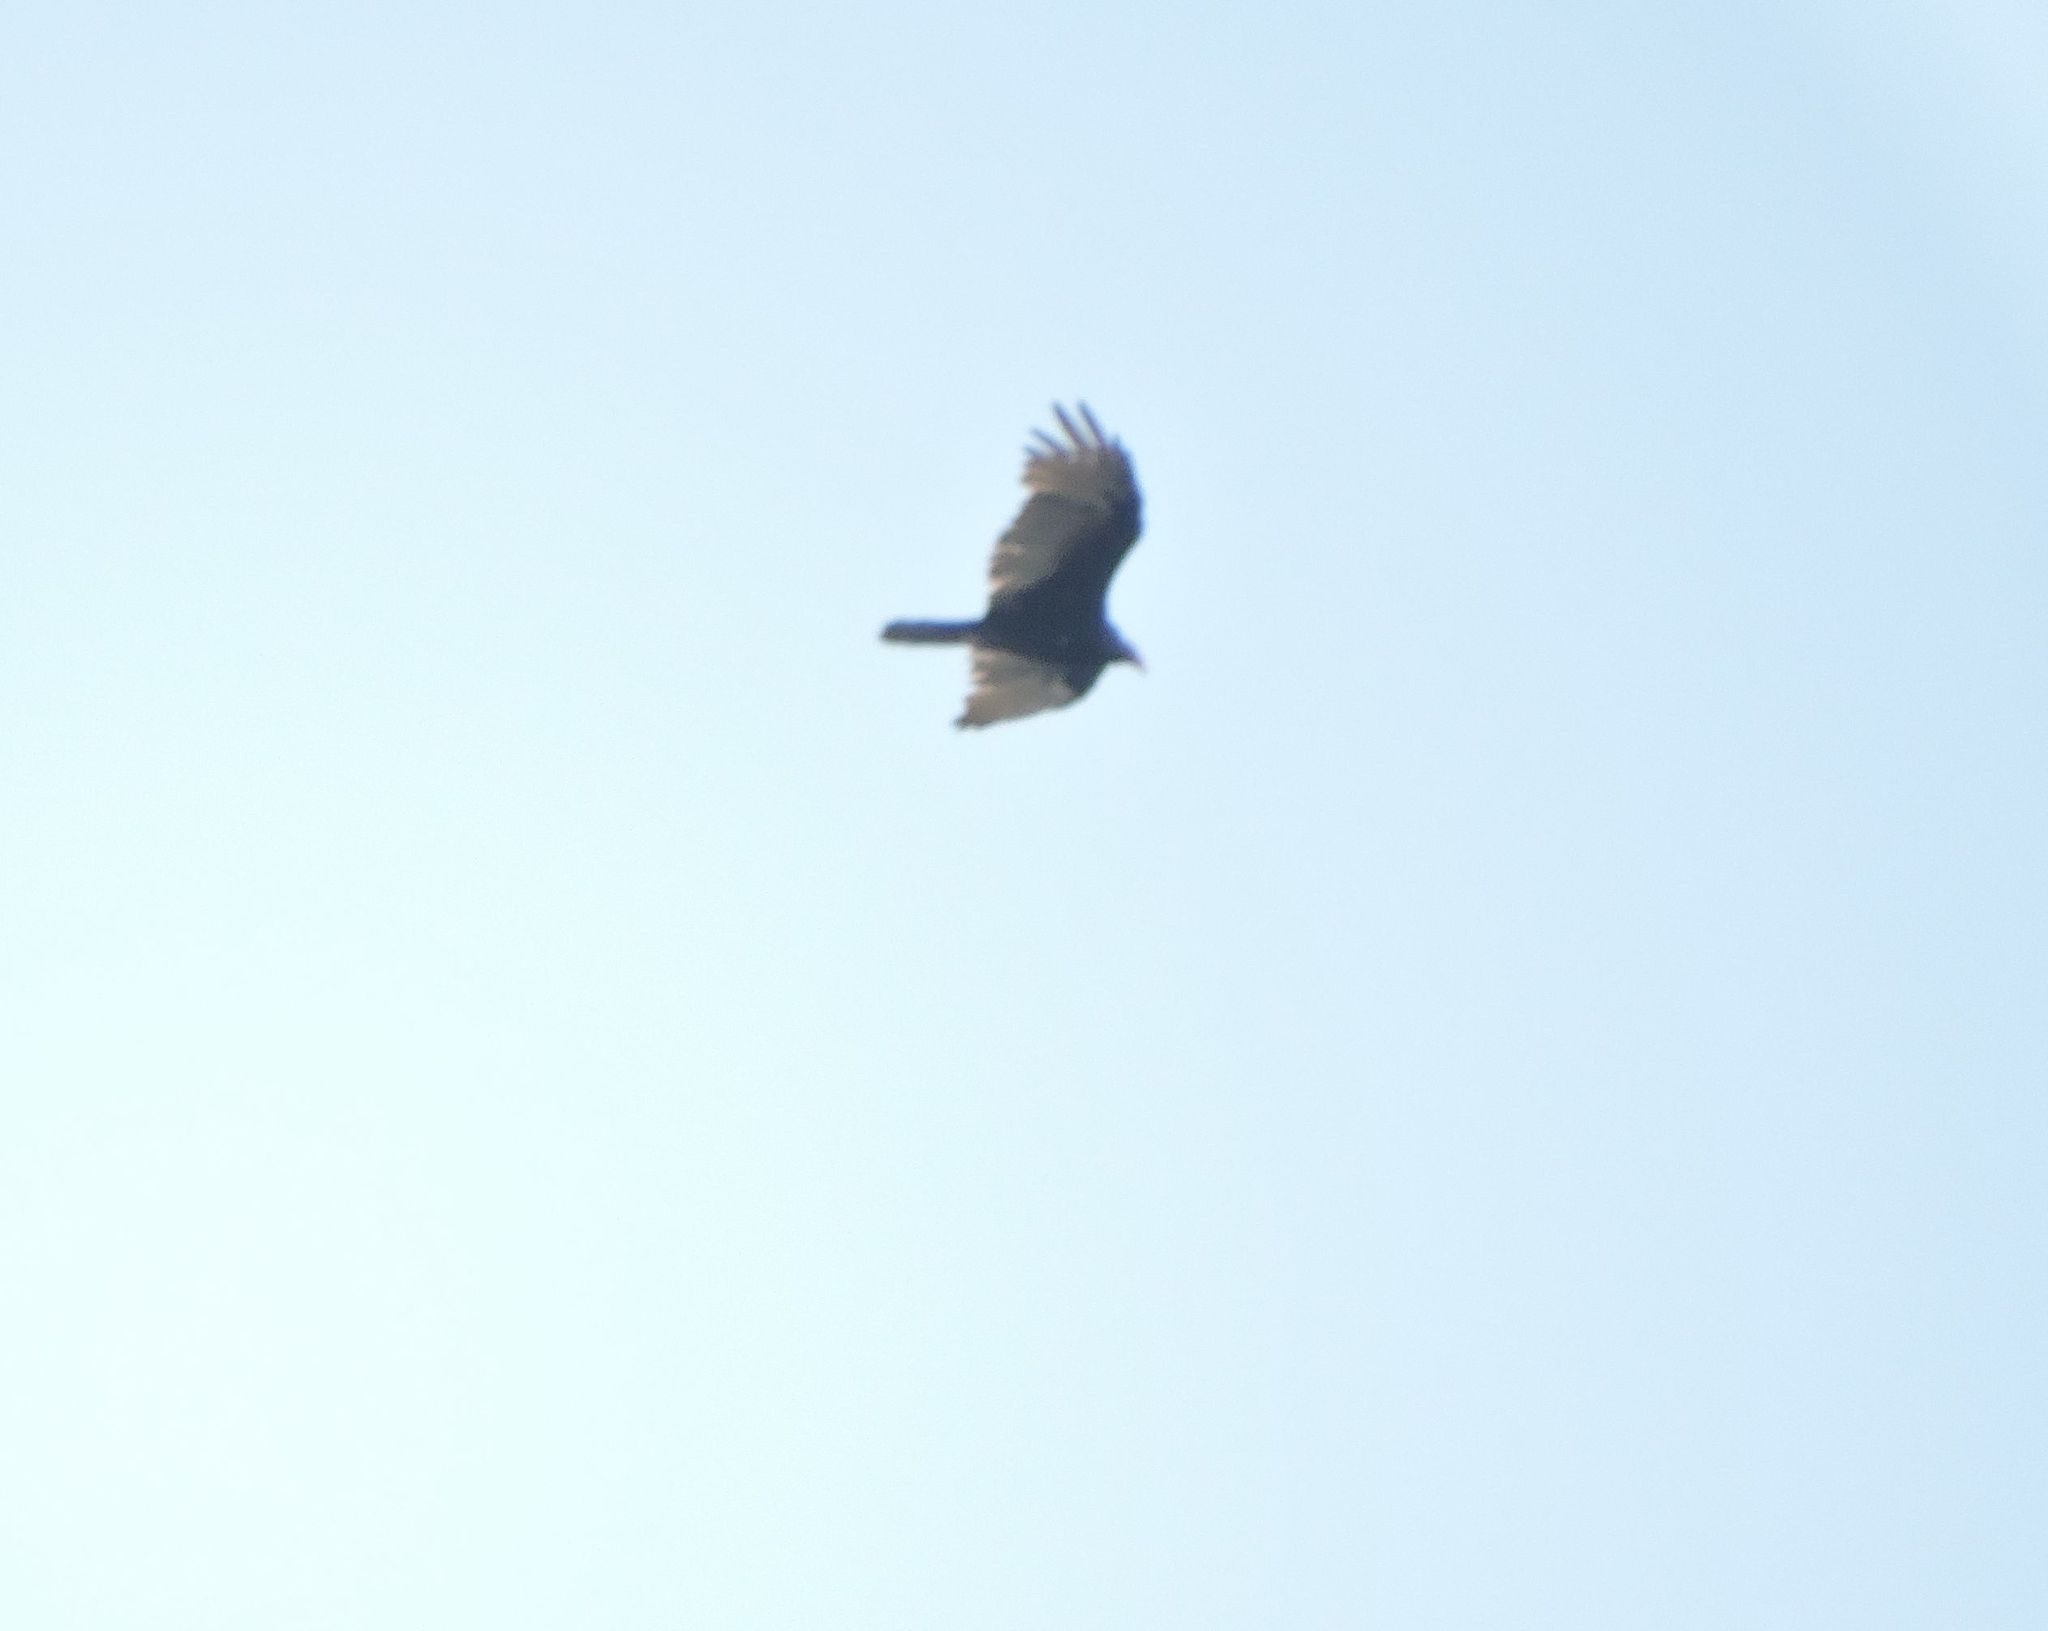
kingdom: Animalia
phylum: Chordata
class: Aves
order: Accipitriformes
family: Cathartidae
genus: Cathartes
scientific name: Cathartes aura
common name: Turkey vulture
